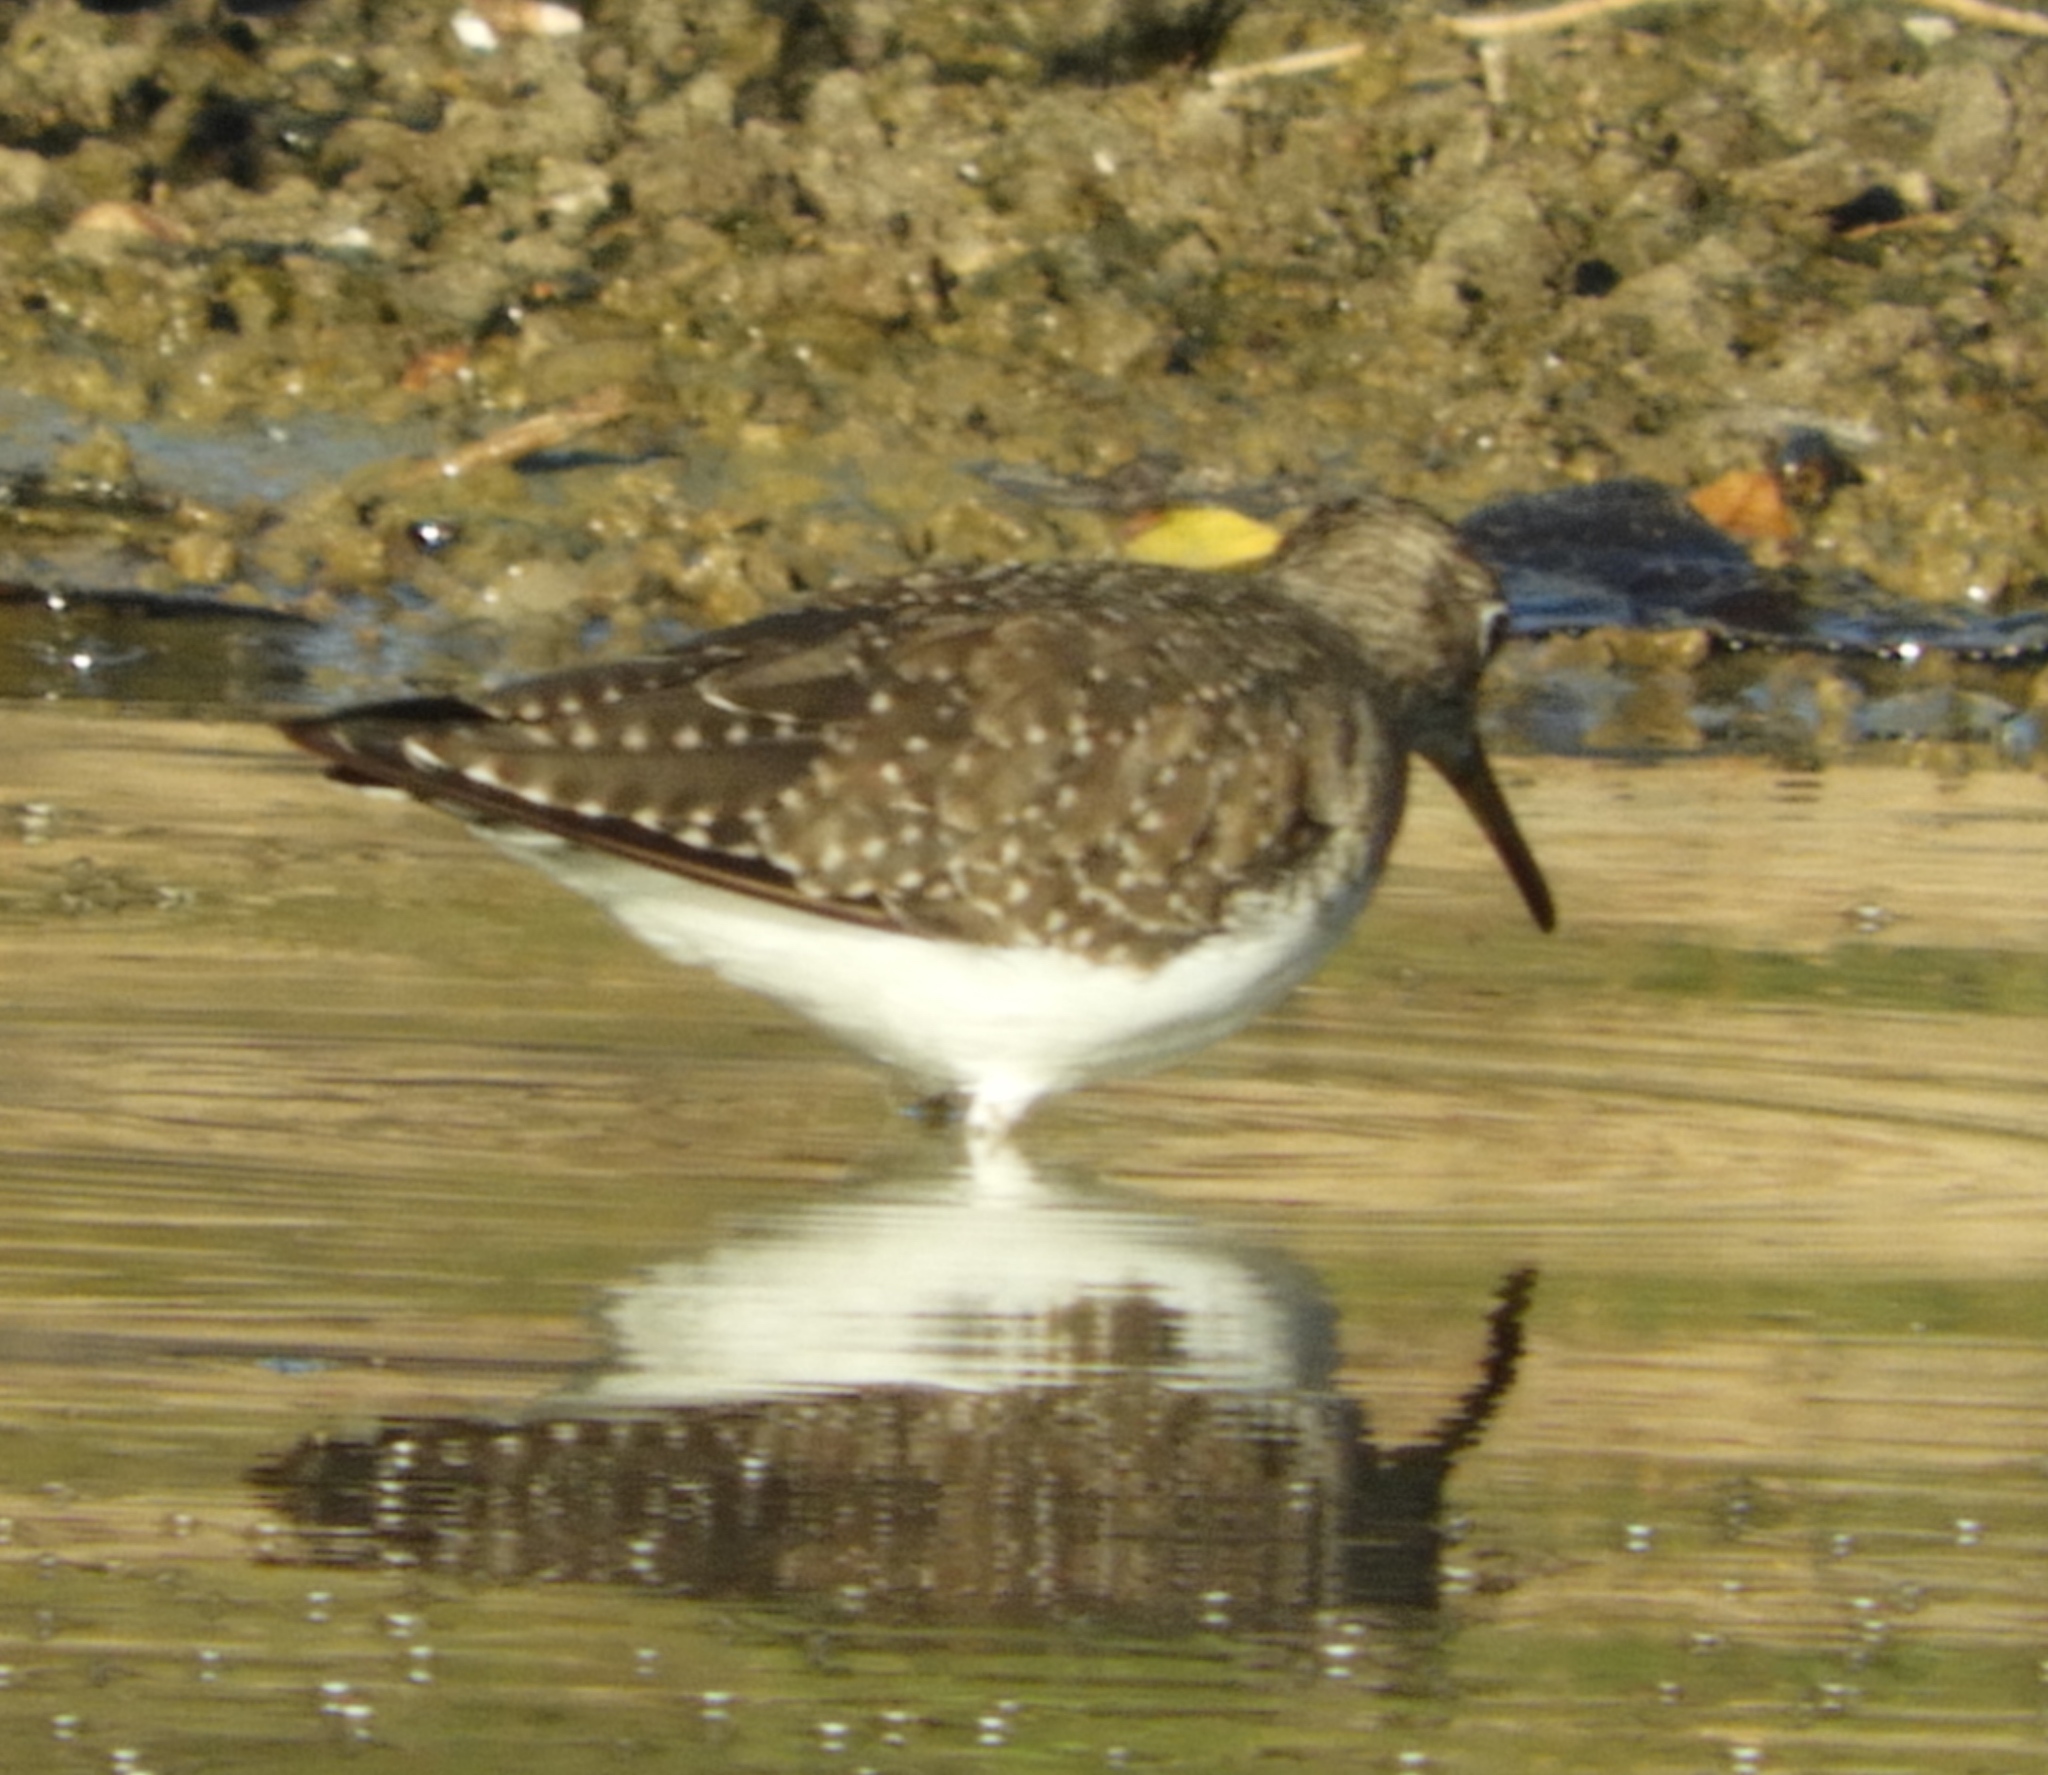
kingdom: Animalia
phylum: Chordata
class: Aves
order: Charadriiformes
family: Scolopacidae
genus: Tringa
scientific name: Tringa solitaria
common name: Solitary sandpiper
